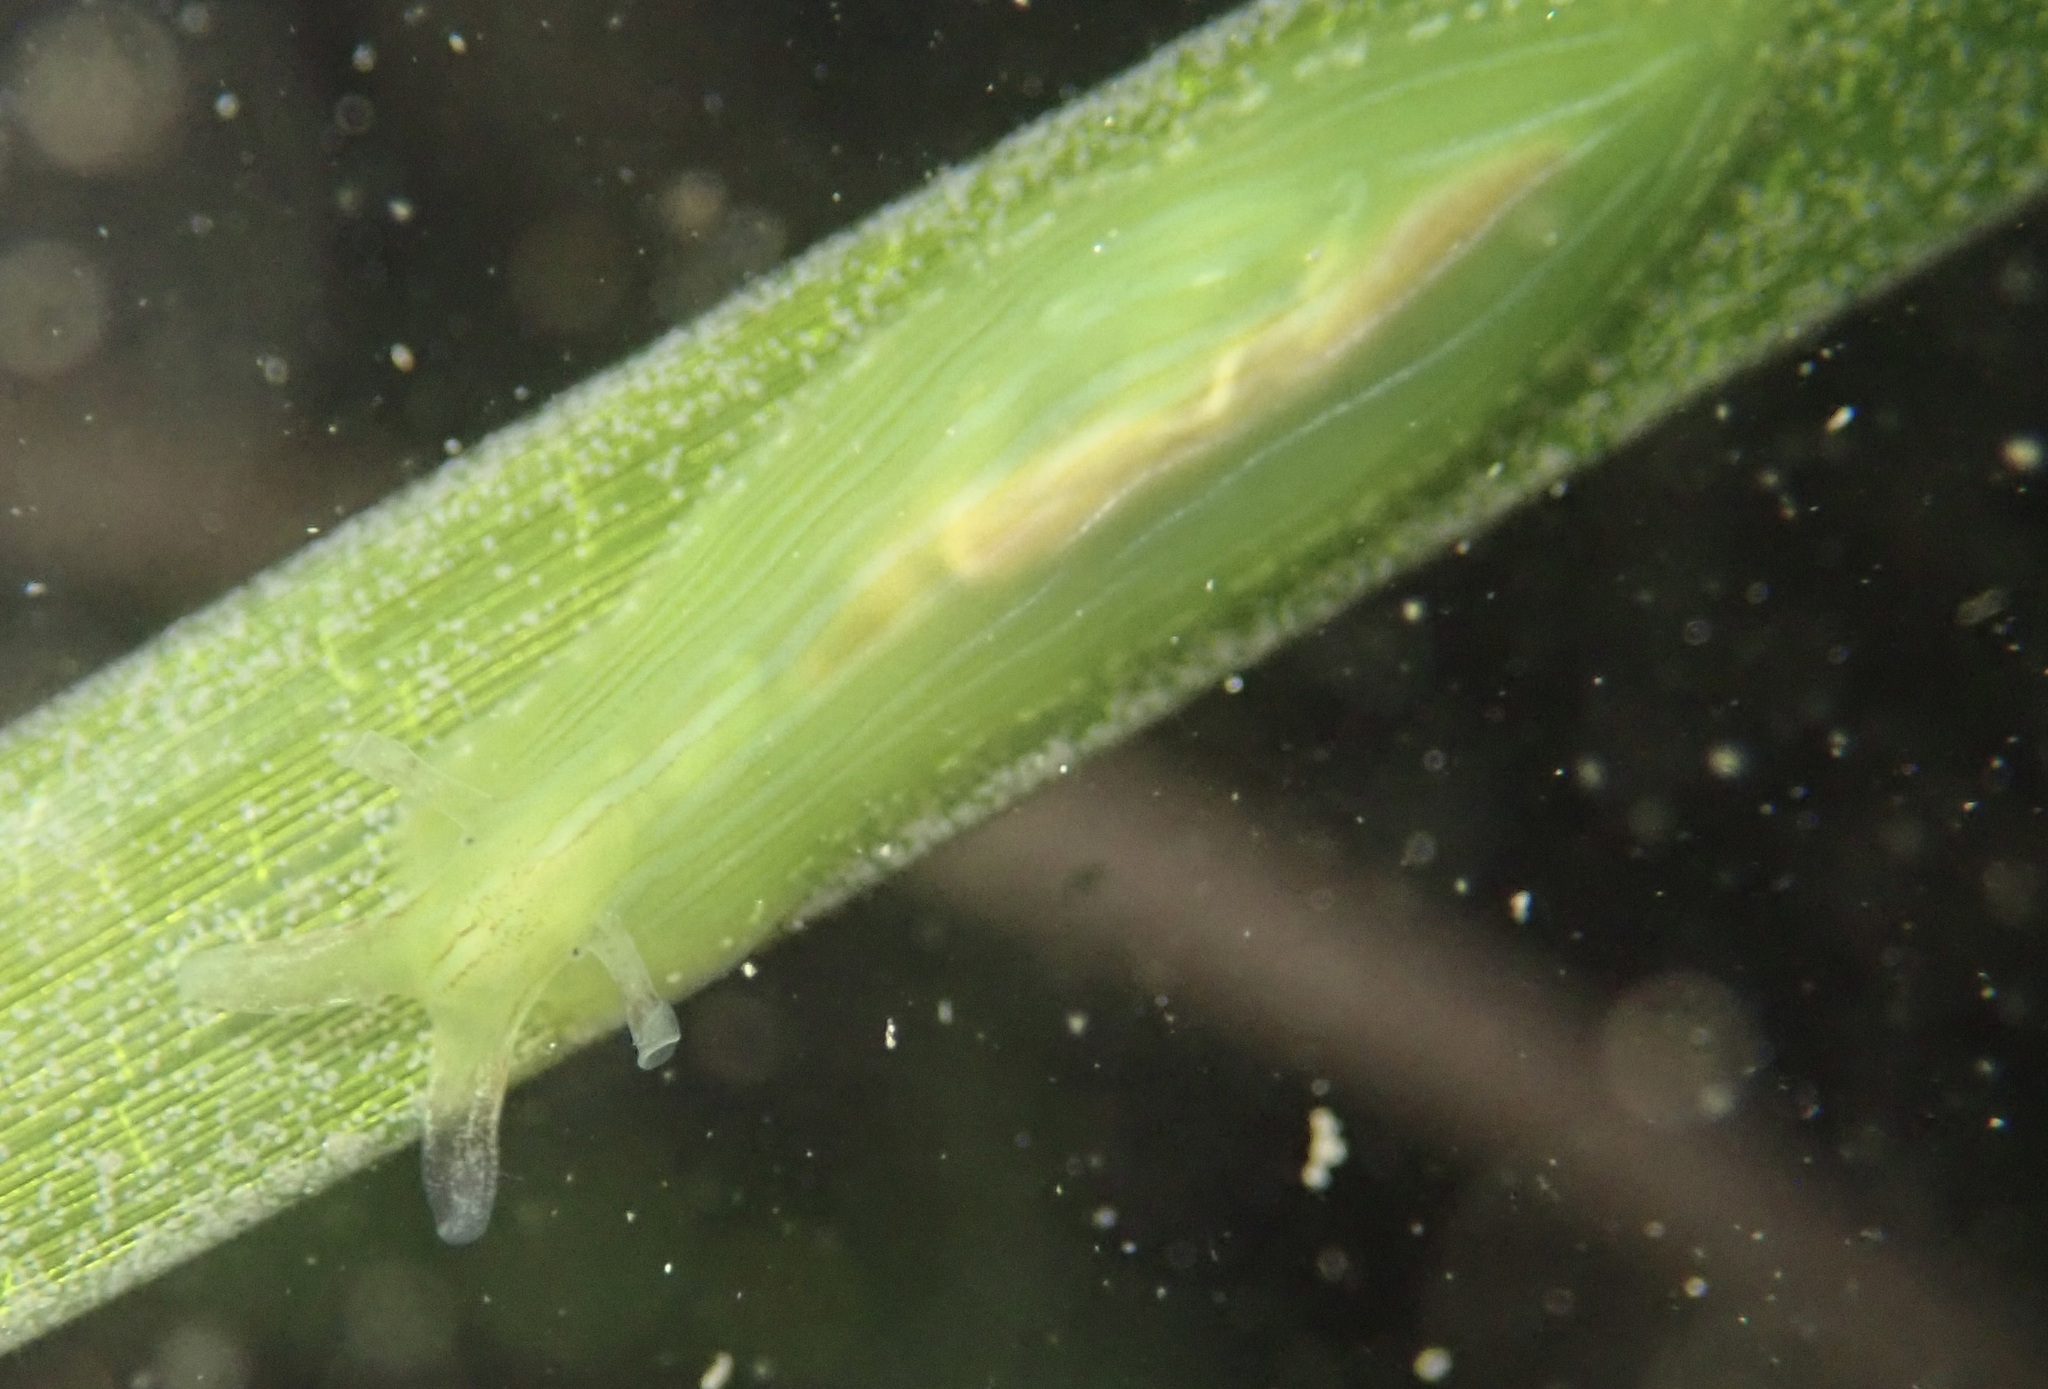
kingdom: Animalia
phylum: Mollusca
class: Gastropoda
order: Aplysiida
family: Aplysiidae
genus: Phyllaplysia
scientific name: Phyllaplysia taylori
